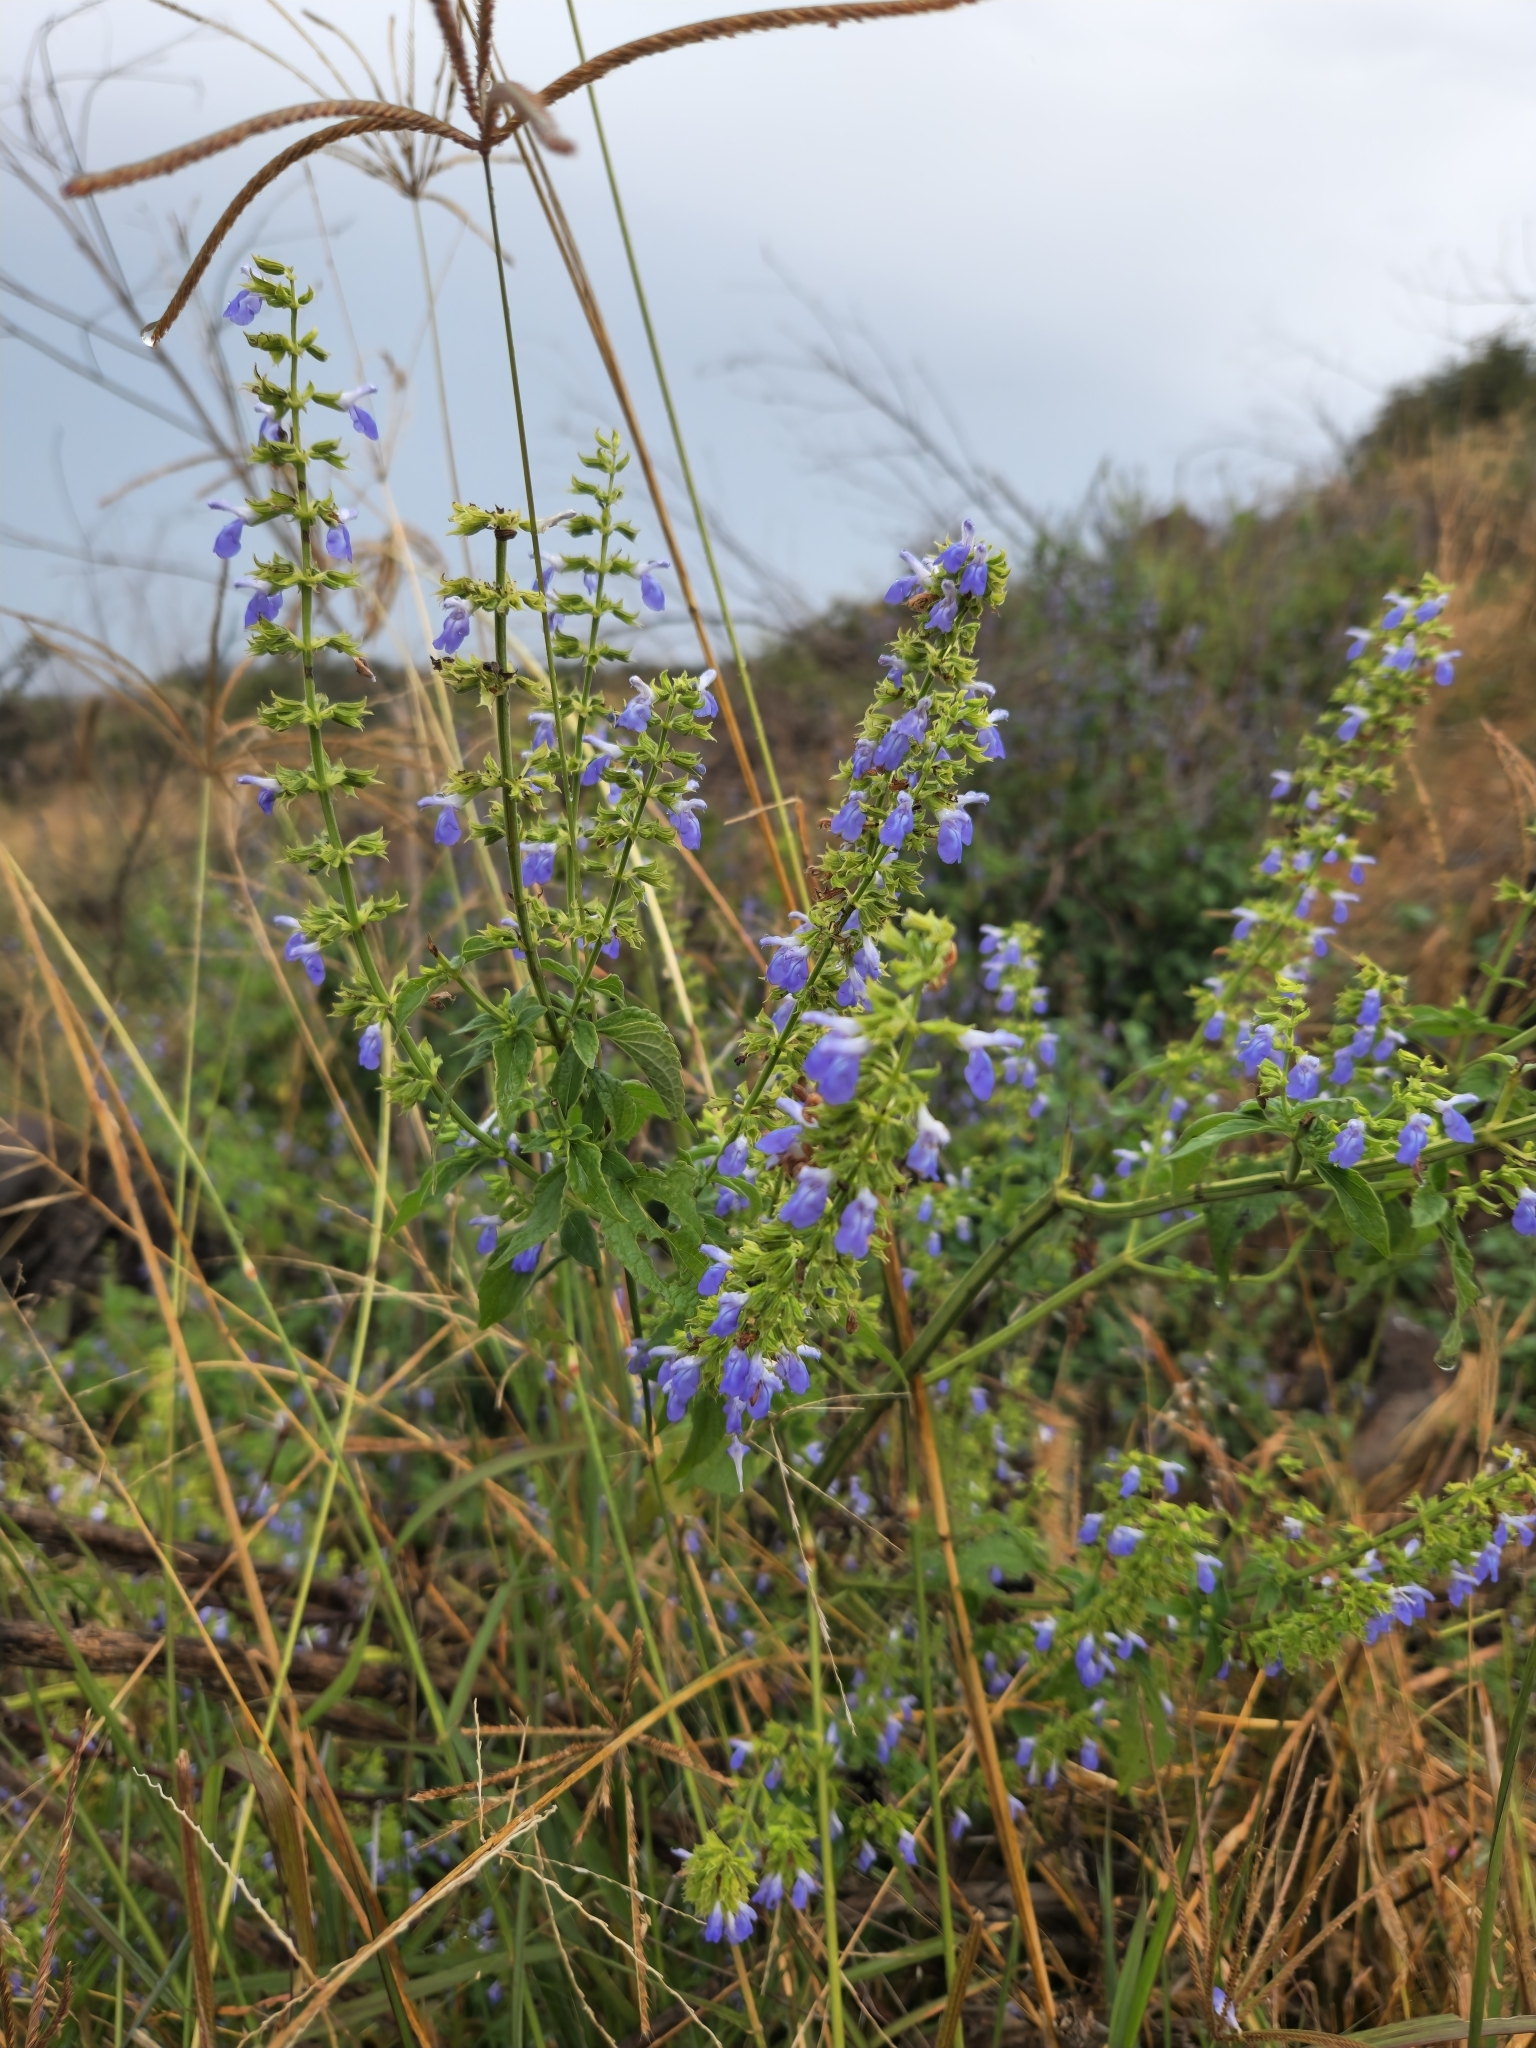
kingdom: Plantae
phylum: Tracheophyta
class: Magnoliopsida
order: Lamiales
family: Lamiaceae
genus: Salvia
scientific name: Salvia longispicata
